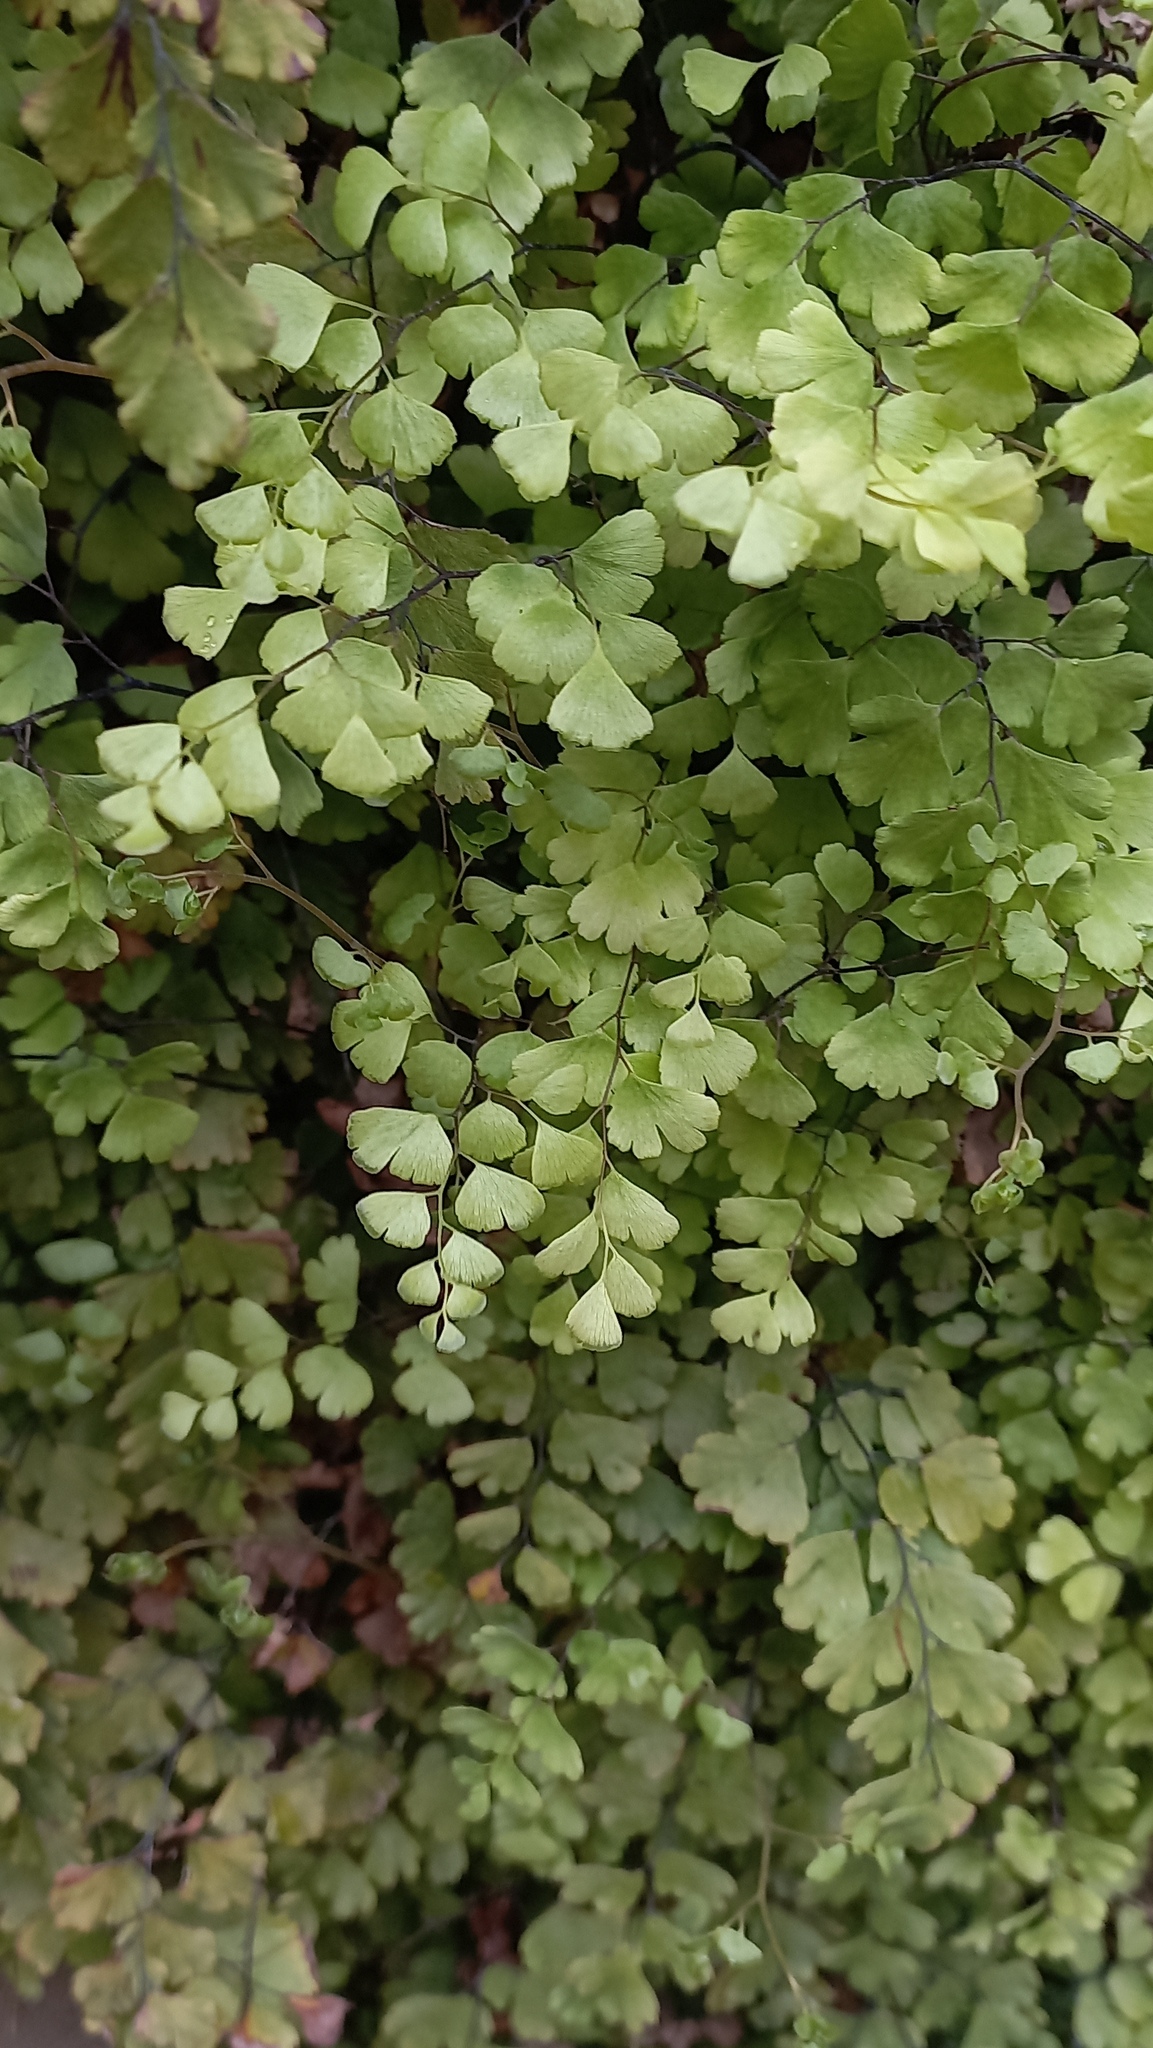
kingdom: Plantae
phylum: Tracheophyta
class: Polypodiopsida
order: Polypodiales
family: Pteridaceae
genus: Adiantum
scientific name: Adiantum capillus-veneris
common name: Maidenhair fern
